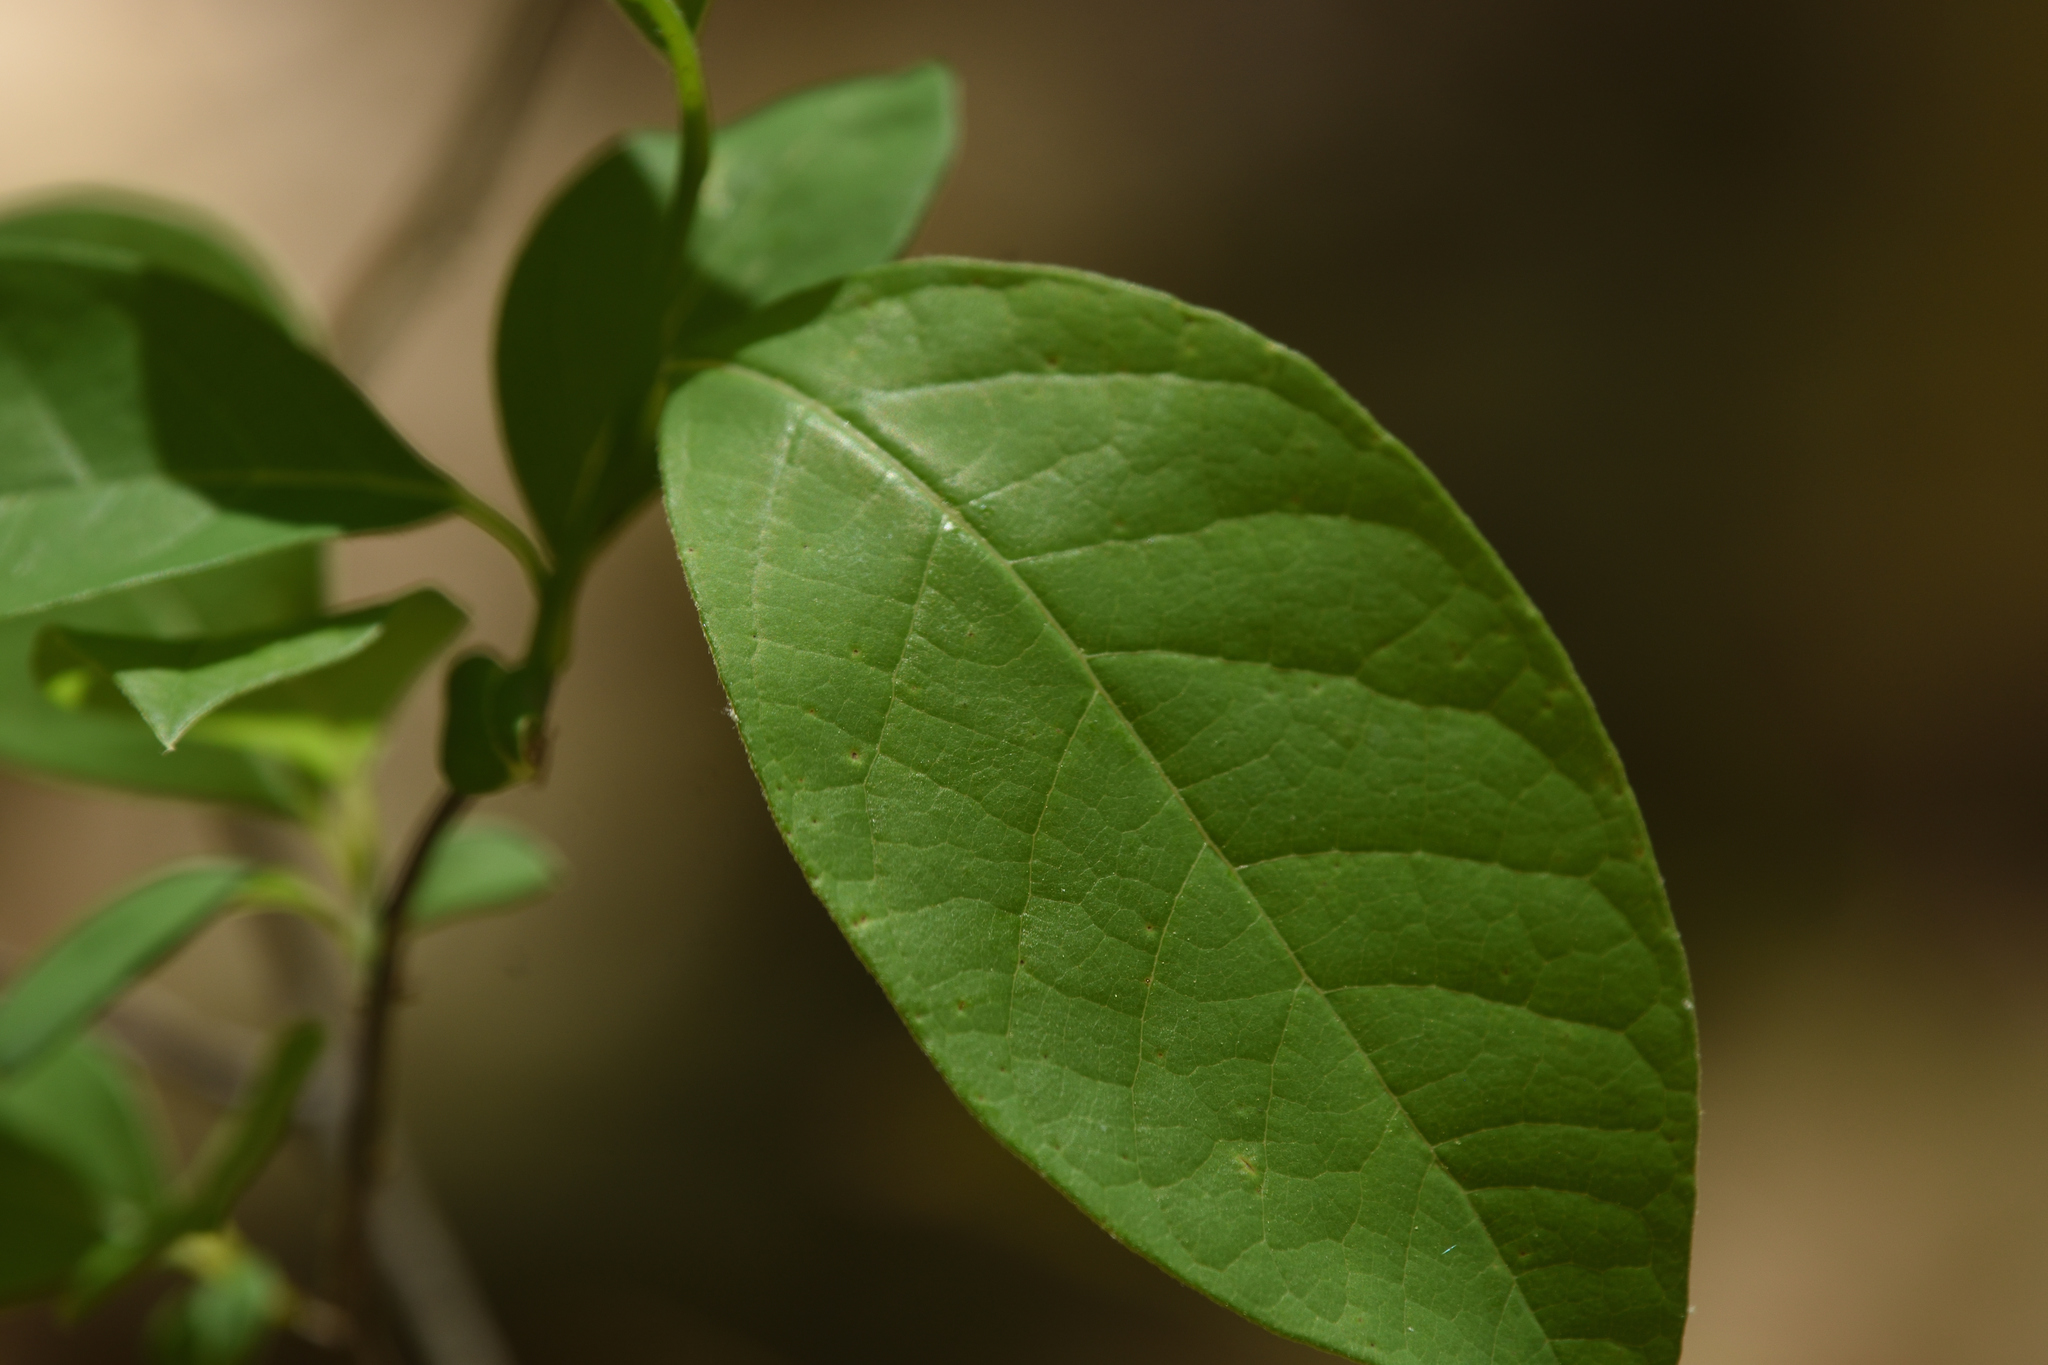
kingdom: Plantae
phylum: Tracheophyta
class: Magnoliopsida
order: Laurales
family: Lauraceae
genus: Lindera
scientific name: Lindera benzoin
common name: Spicebush
